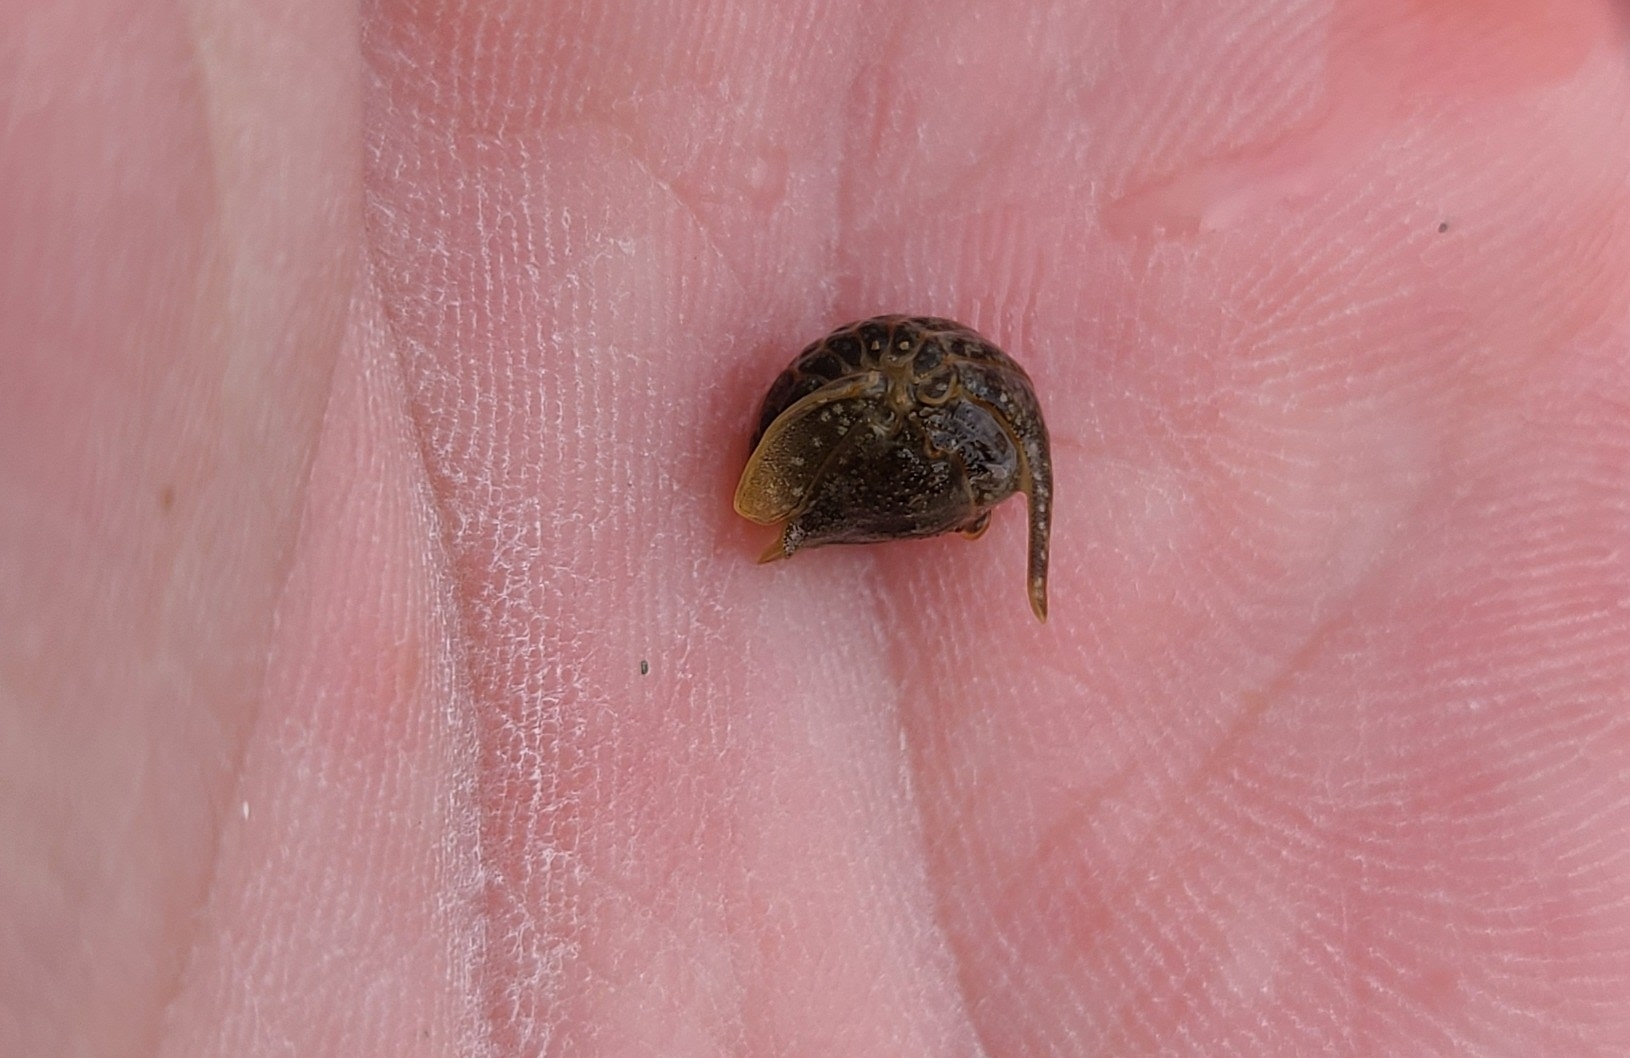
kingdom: Animalia
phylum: Arthropoda
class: Malacostraca
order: Isopoda
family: Sphaeromatidae
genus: Isocladus
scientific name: Isocladus armatus
